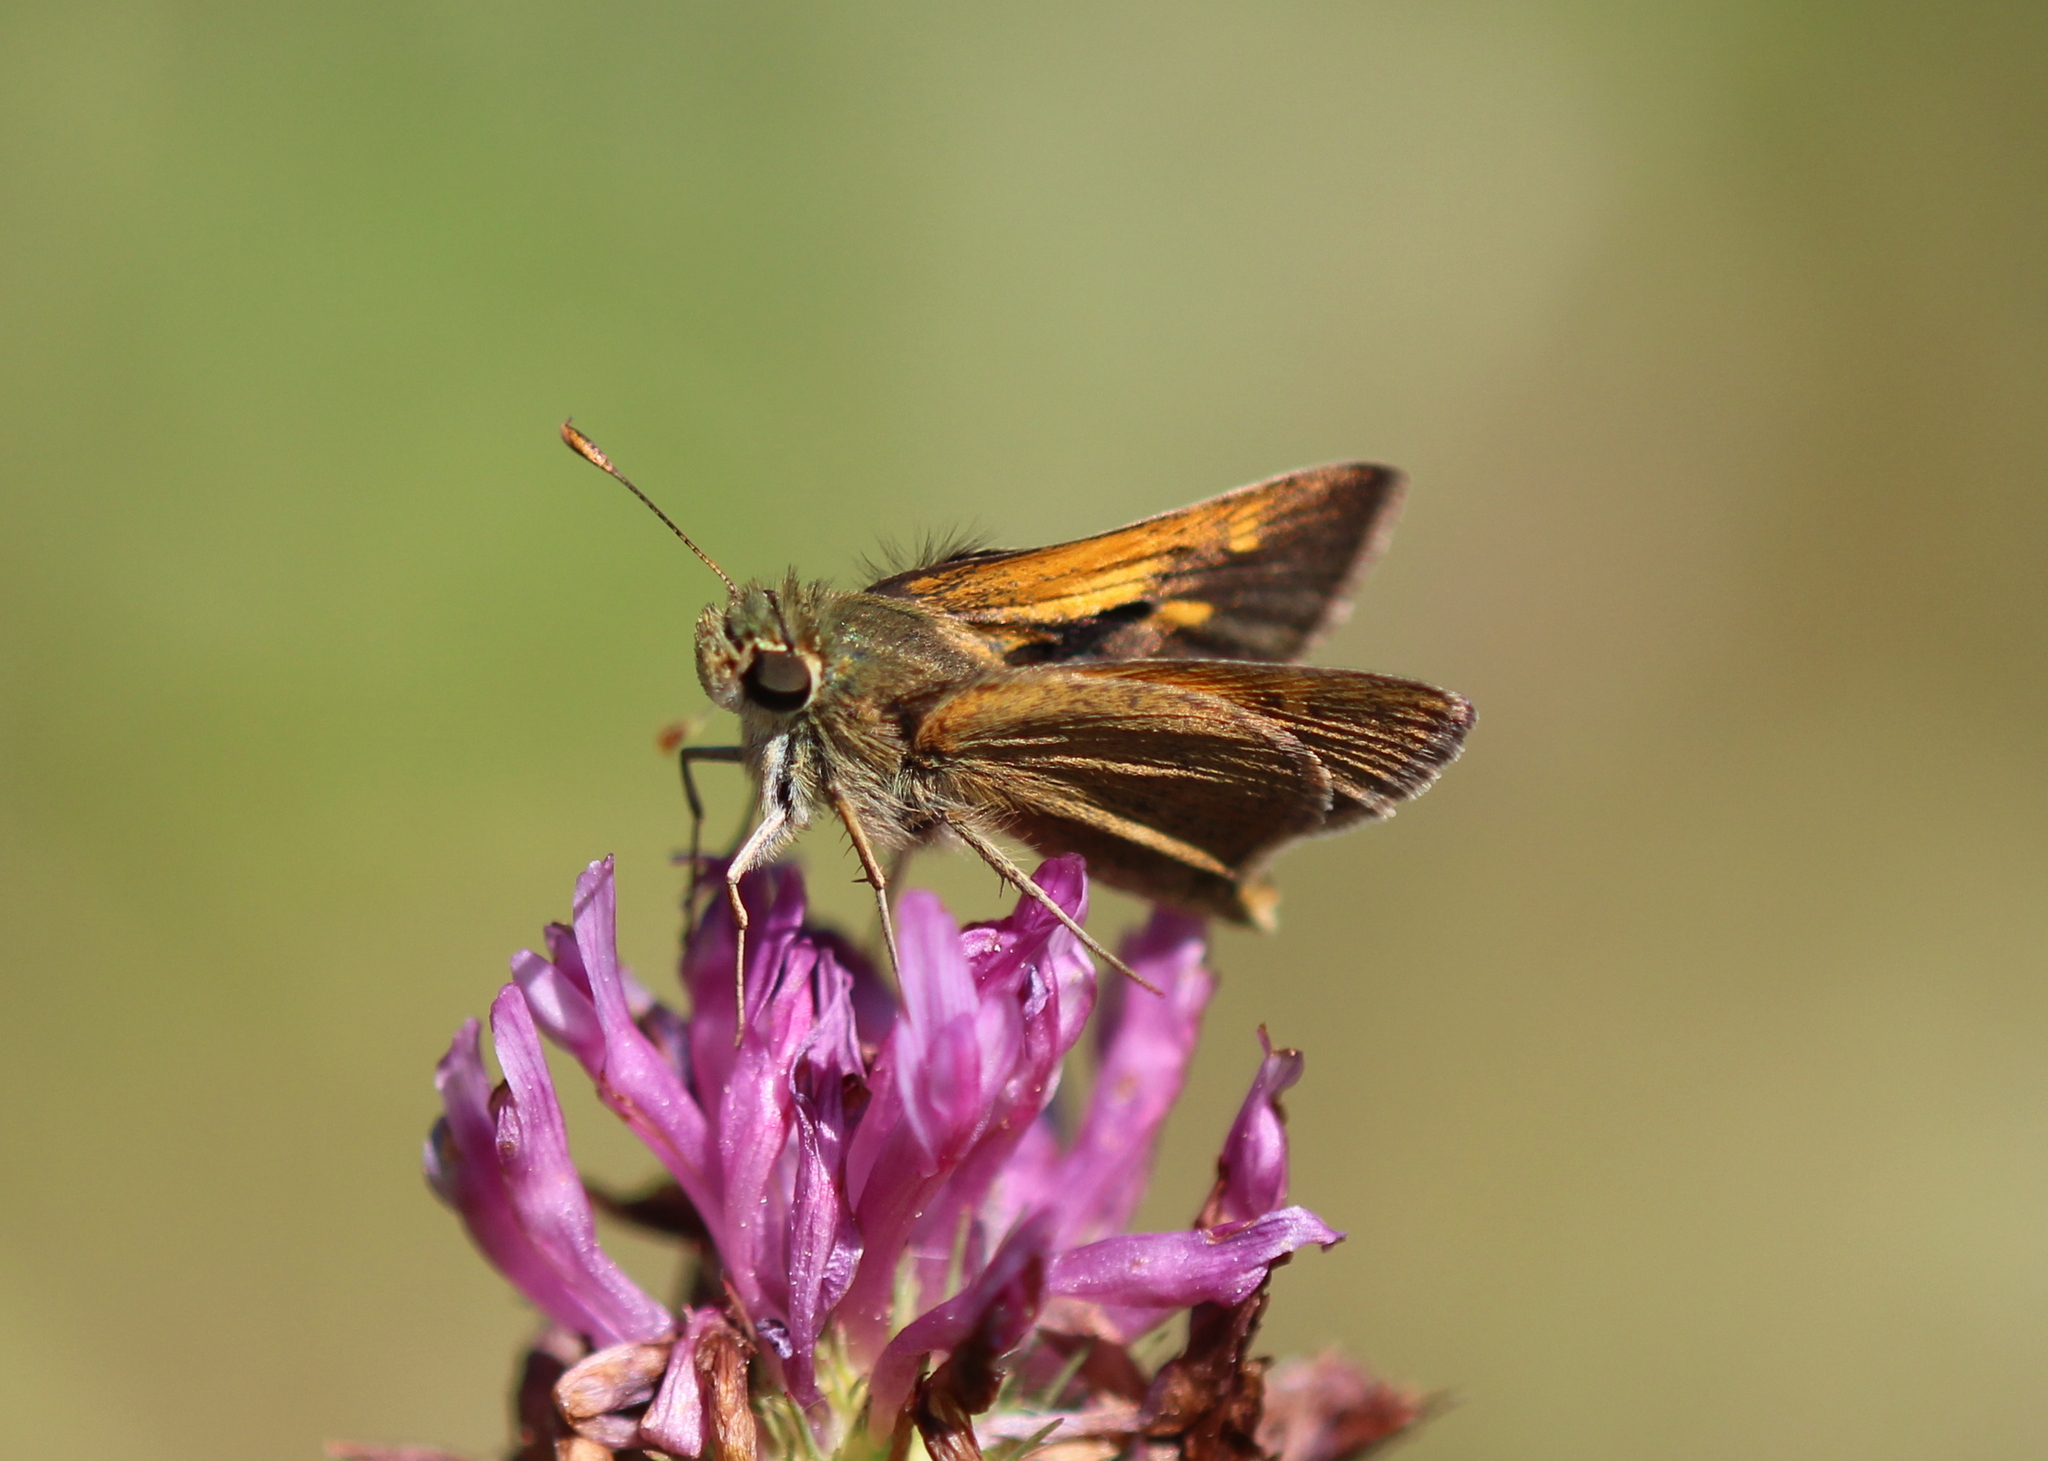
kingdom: Animalia
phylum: Arthropoda
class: Insecta
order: Lepidoptera
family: Hesperiidae
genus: Polites
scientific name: Polites themistocles
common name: Tawny-edged skipper
